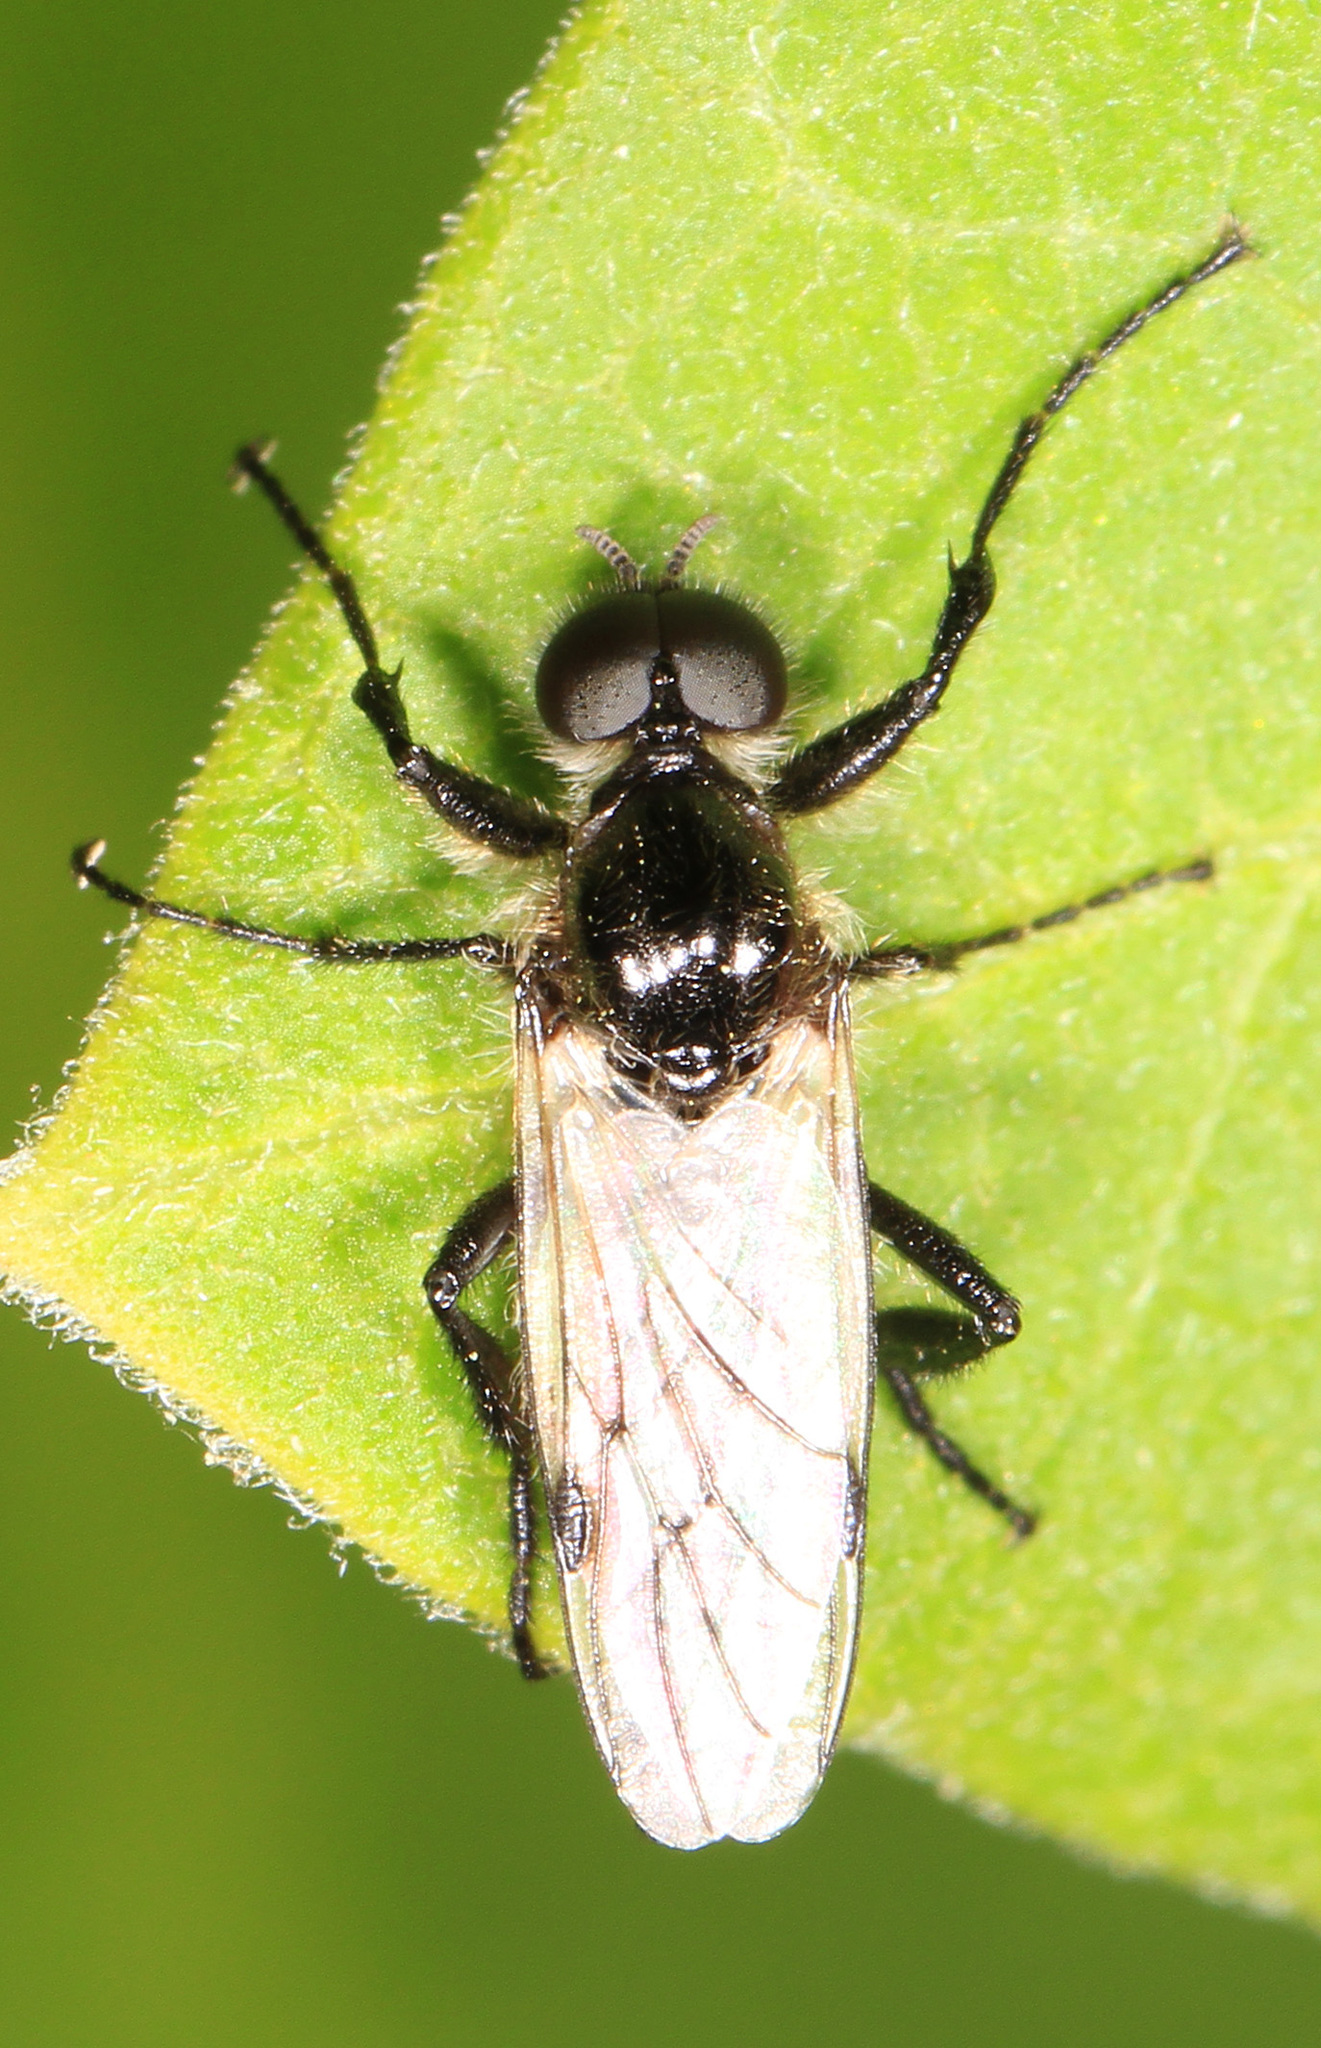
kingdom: Animalia
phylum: Arthropoda
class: Insecta
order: Diptera
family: Bibionidae
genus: Bibio
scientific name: Bibio albipennis
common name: White-winged march fly
